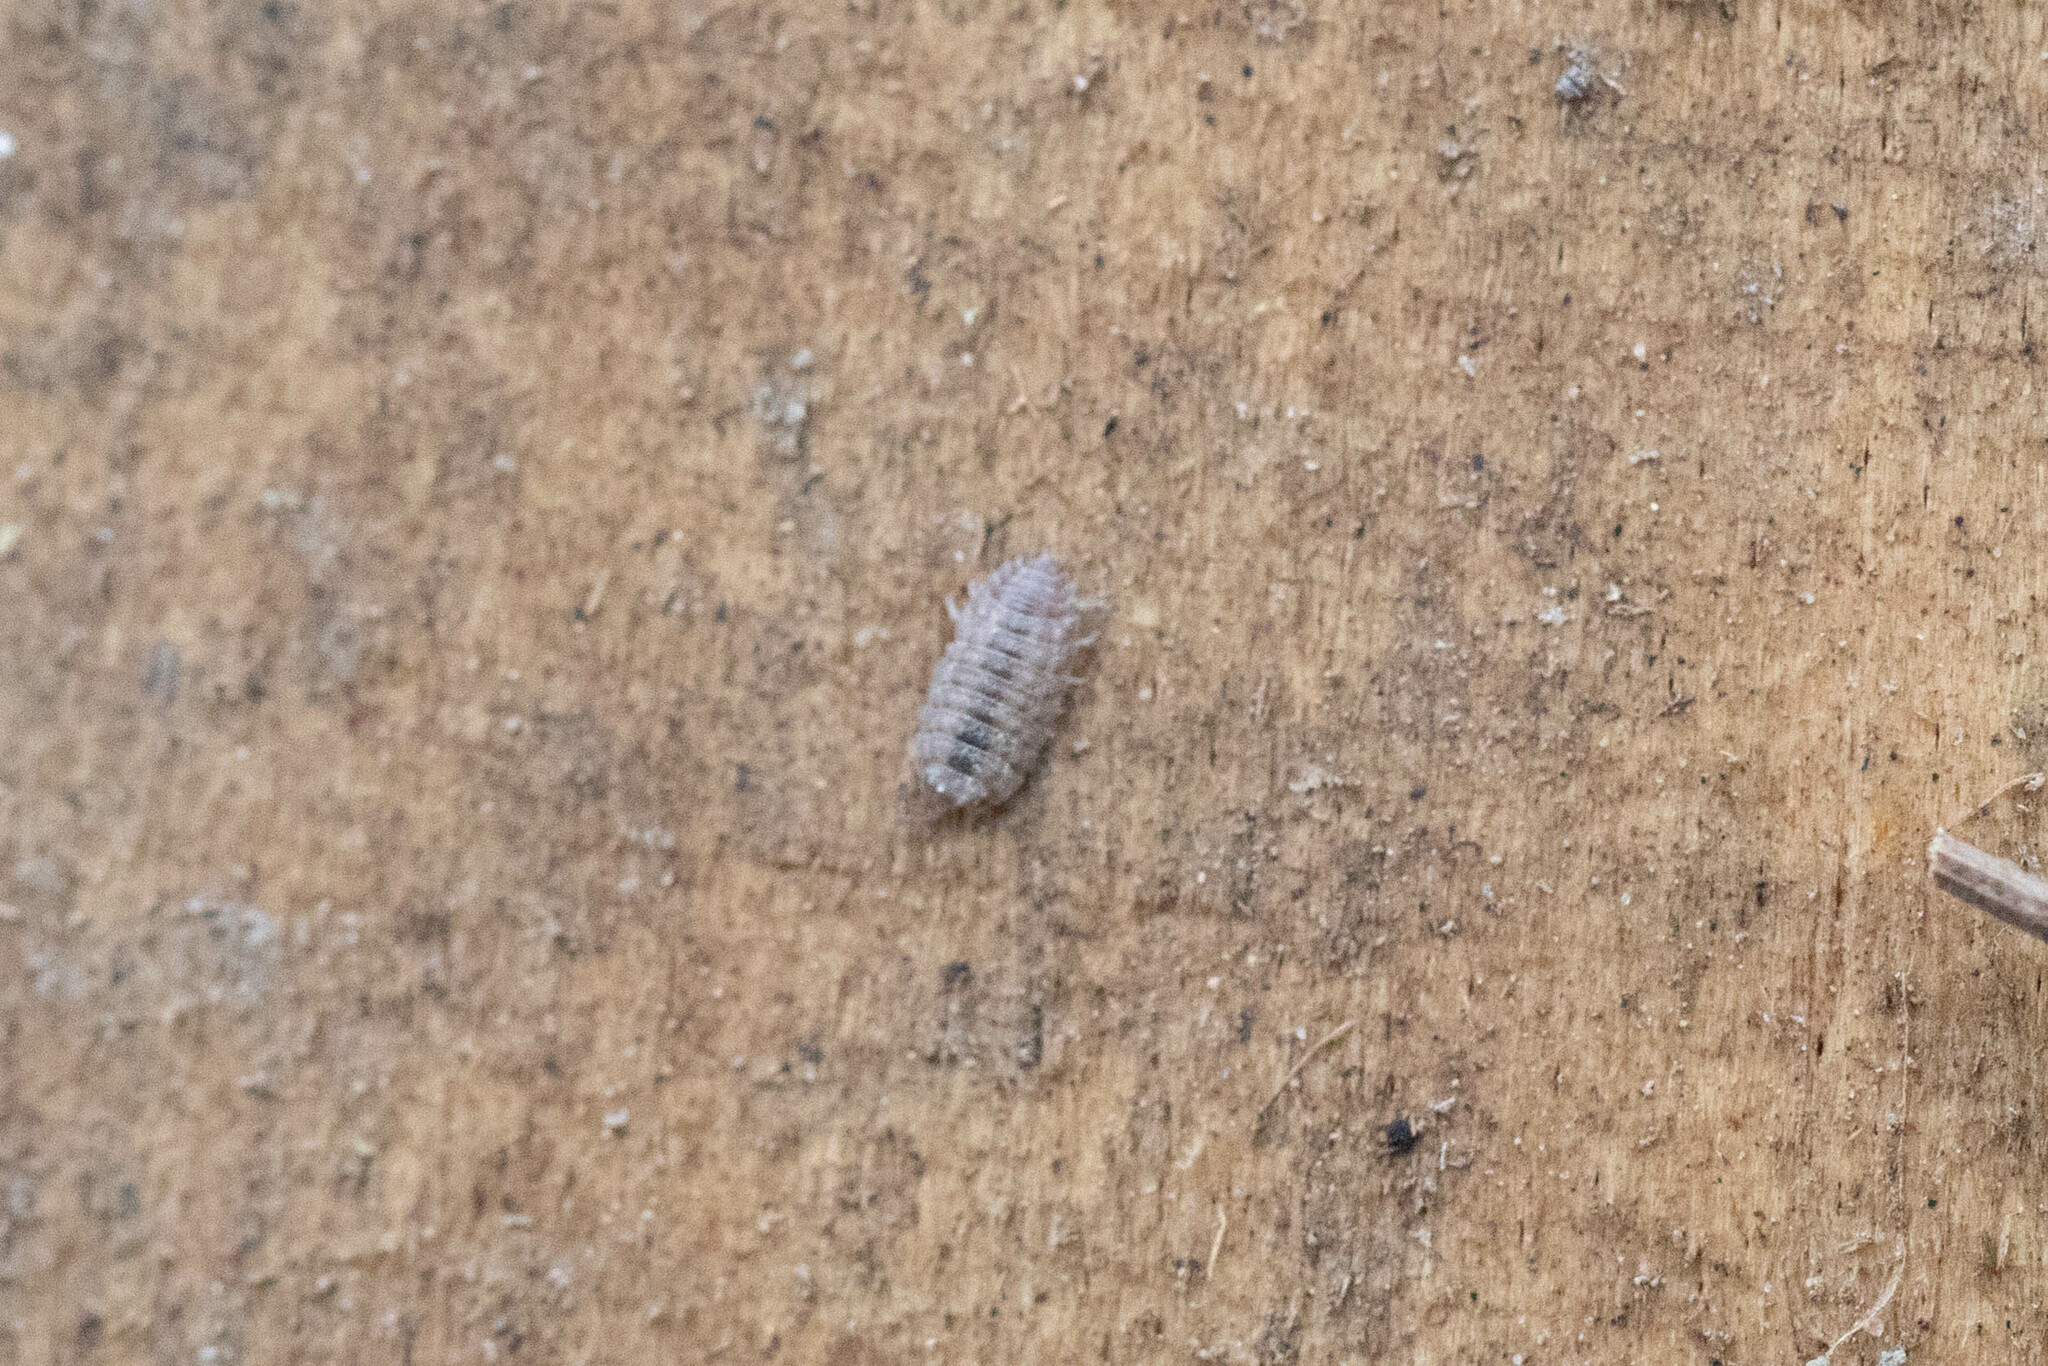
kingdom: Animalia
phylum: Arthropoda
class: Malacostraca
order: Isopoda
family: Porcellionidae
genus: Porcellio
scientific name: Porcellio scaber
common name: Common rough woodlouse
